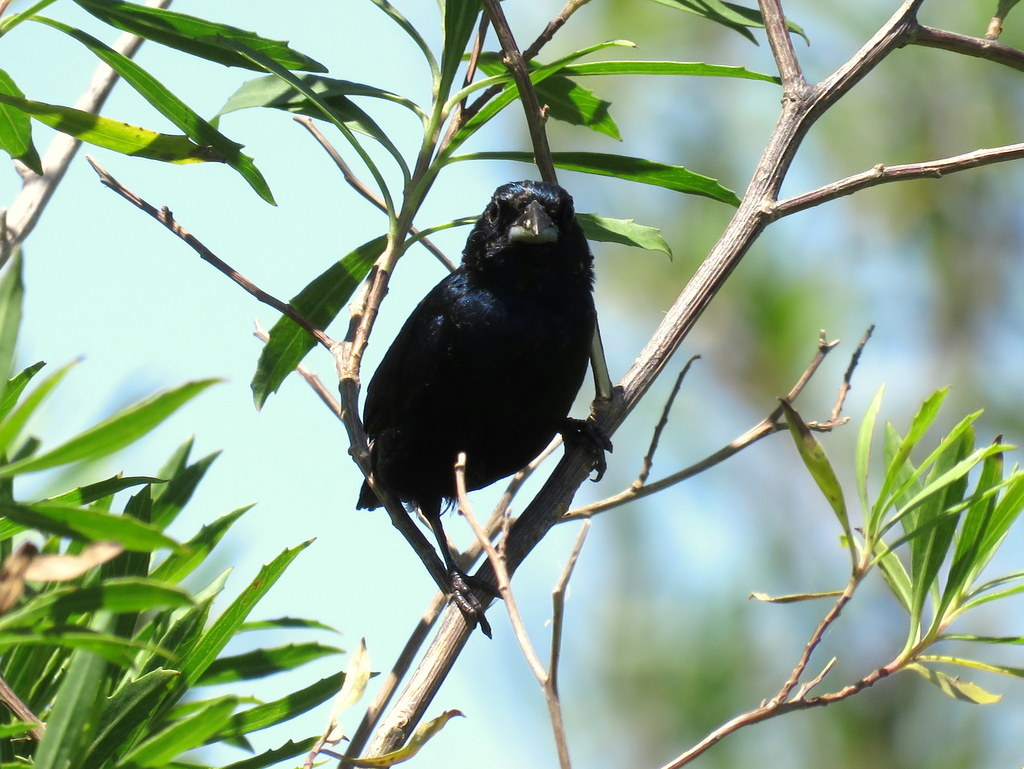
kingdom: Animalia
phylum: Chordata
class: Aves
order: Passeriformes
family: Thraupidae
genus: Volatinia
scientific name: Volatinia jacarina
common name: Blue-black grassquit
